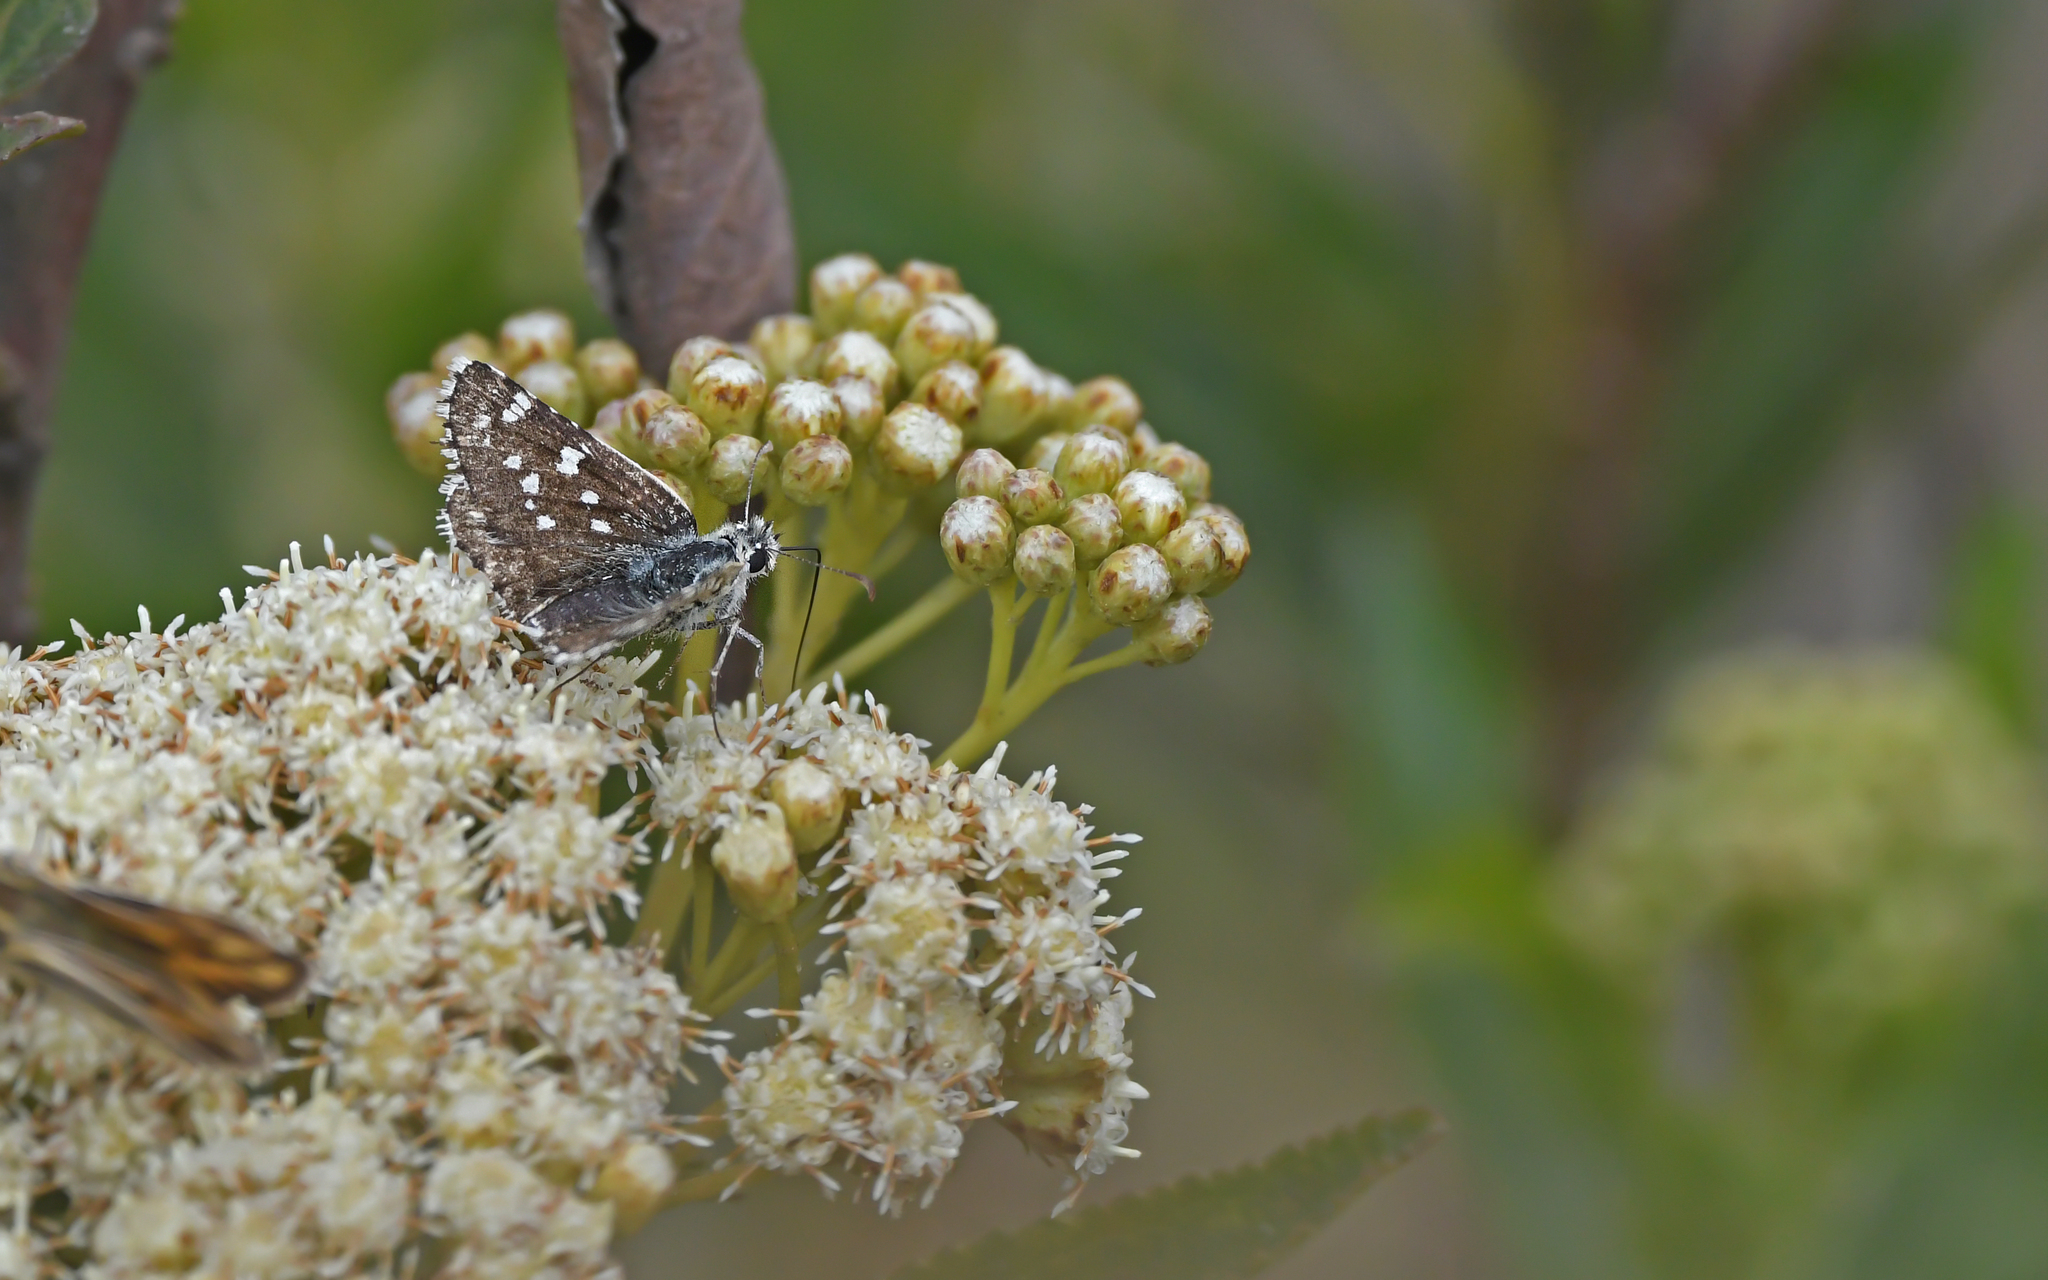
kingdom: Animalia
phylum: Arthropoda
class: Insecta
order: Lepidoptera
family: Hesperiidae
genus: Chirgus
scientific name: Chirgus bocchoris
